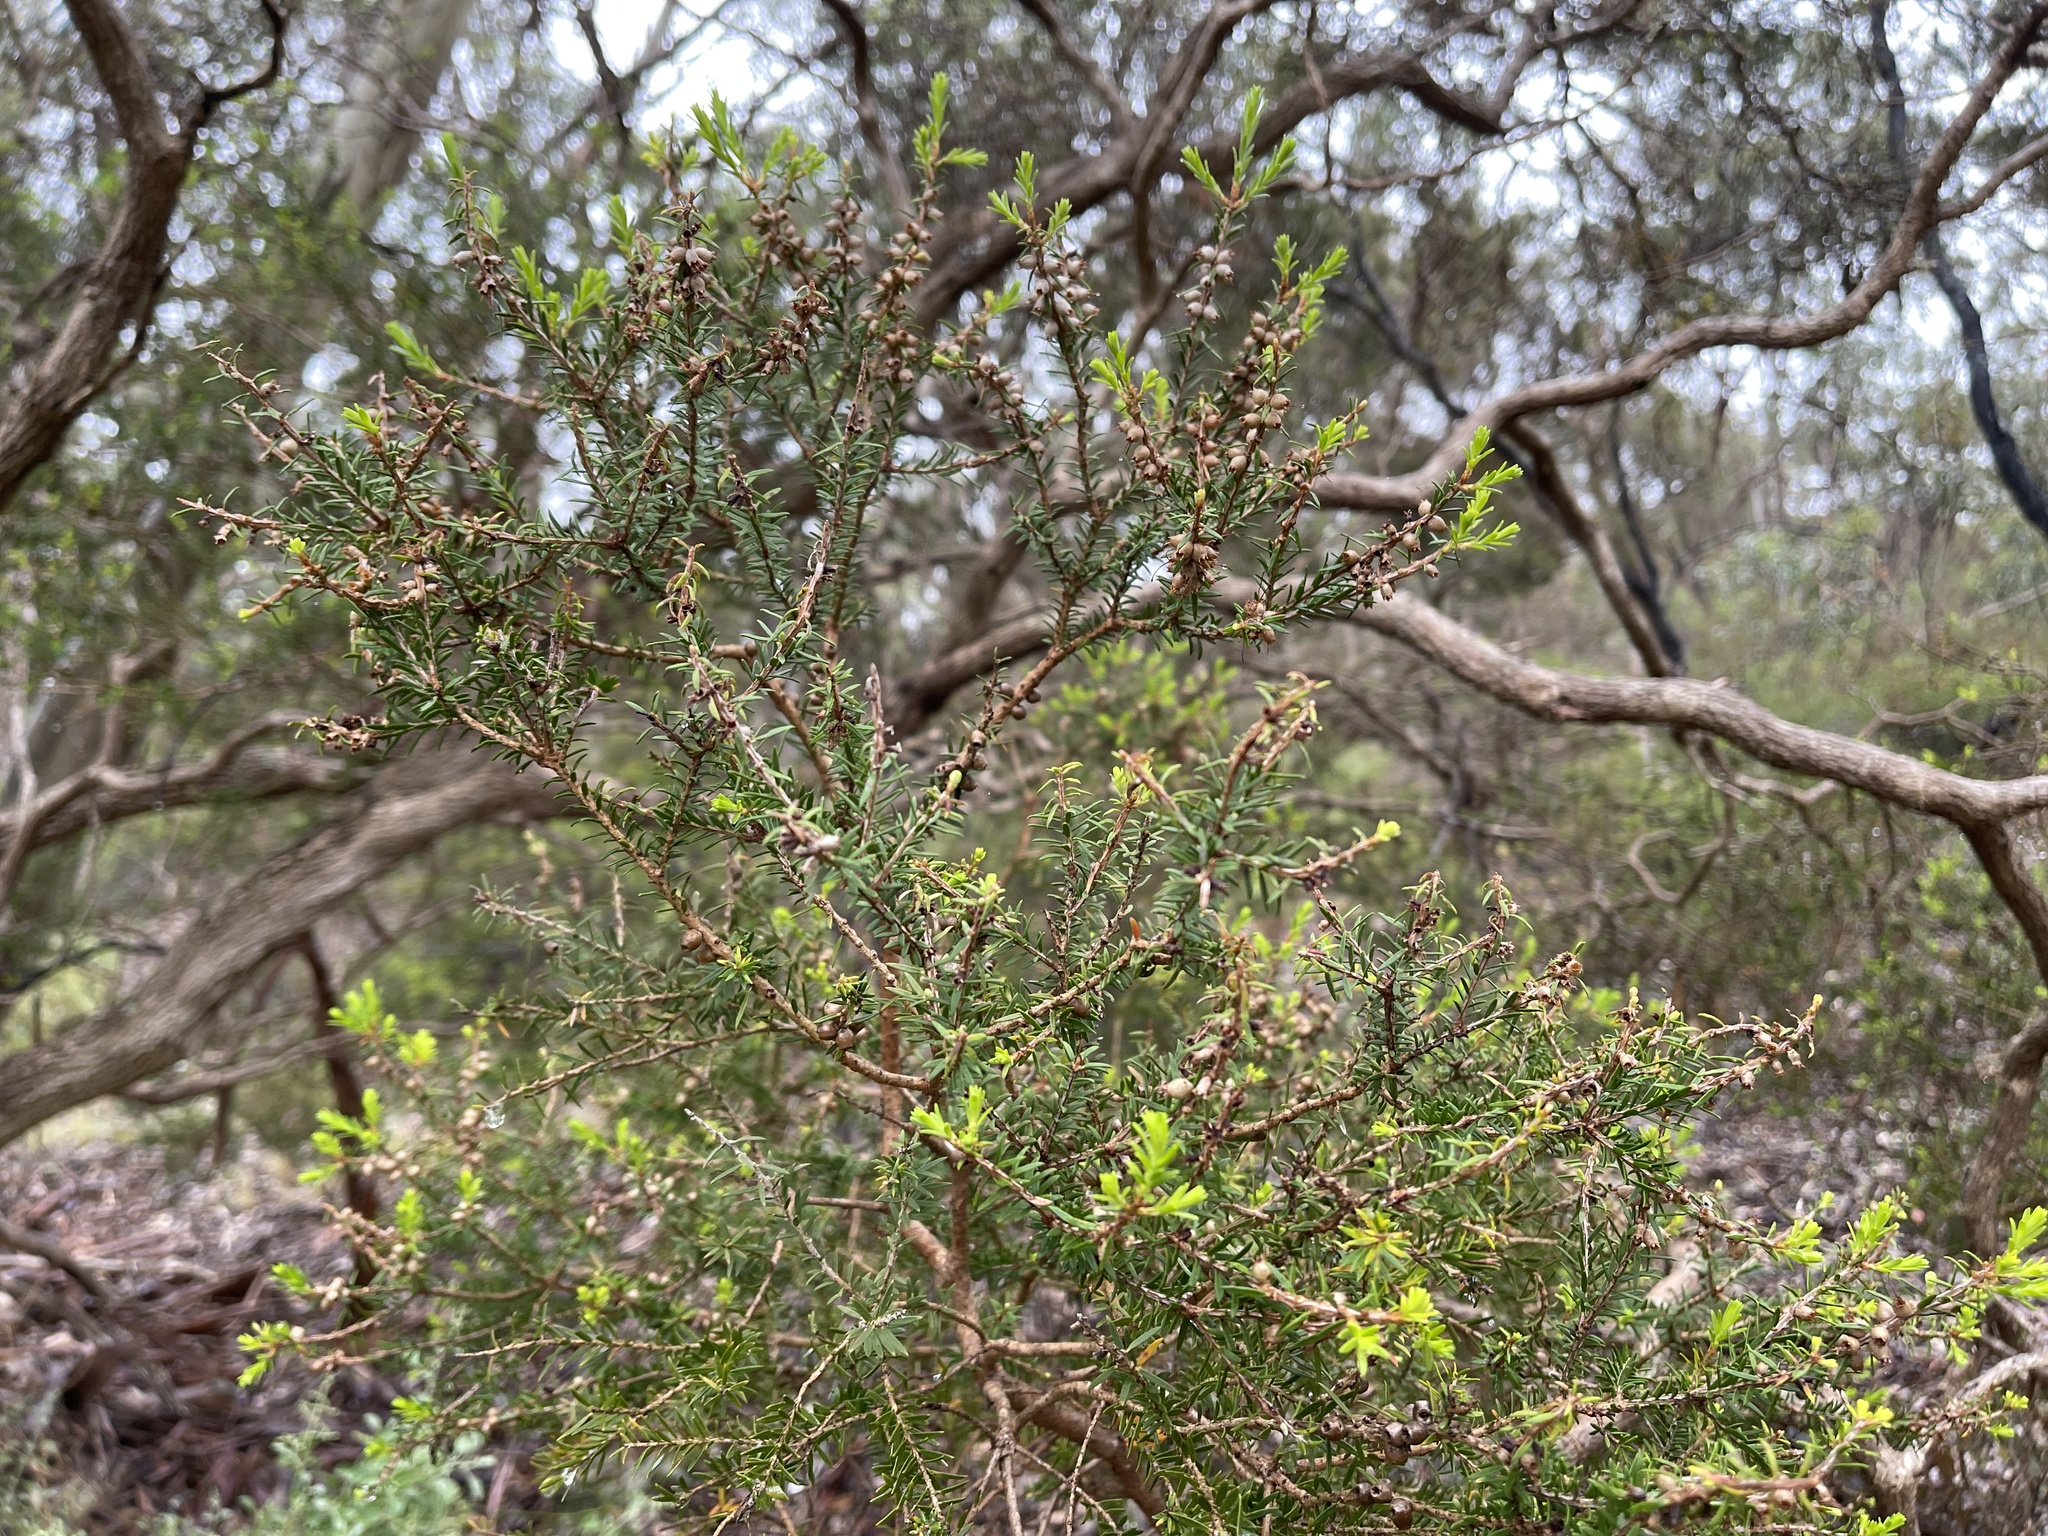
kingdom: Plantae
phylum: Tracheophyta
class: Magnoliopsida
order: Myrtales
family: Myrtaceae
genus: Melaleuca
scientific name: Melaleuca lanceolata
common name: Rottnest island teatree
